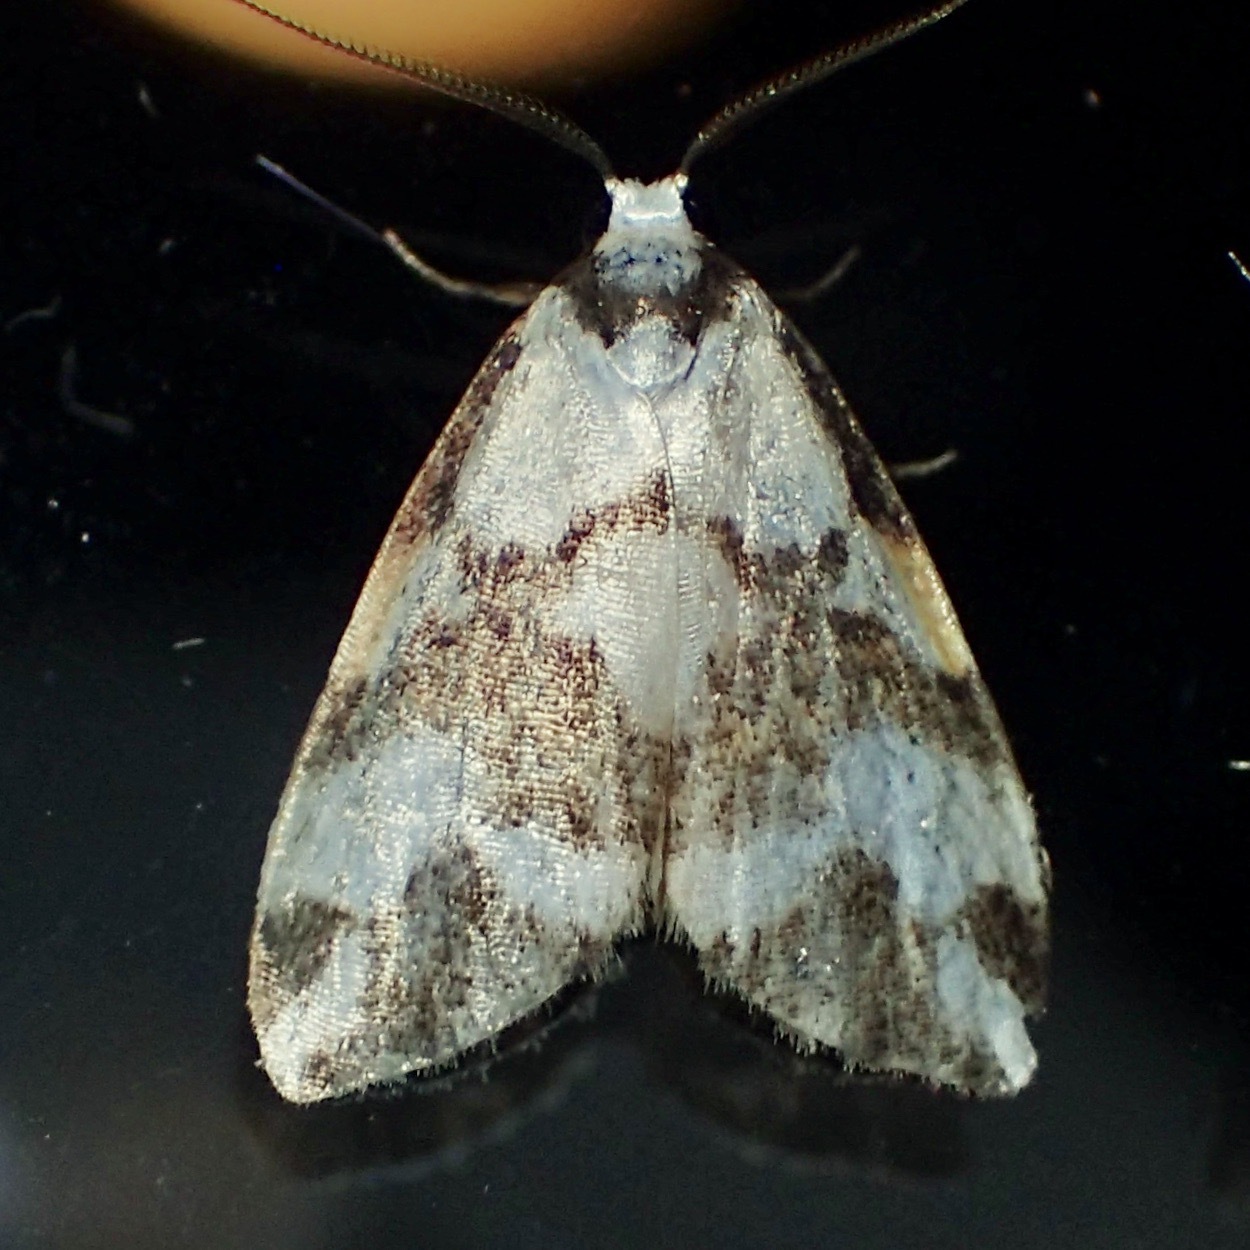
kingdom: Animalia
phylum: Arthropoda
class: Insecta
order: Lepidoptera
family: Erebidae
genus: Thallarcha
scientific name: Thallarcha staurocola
